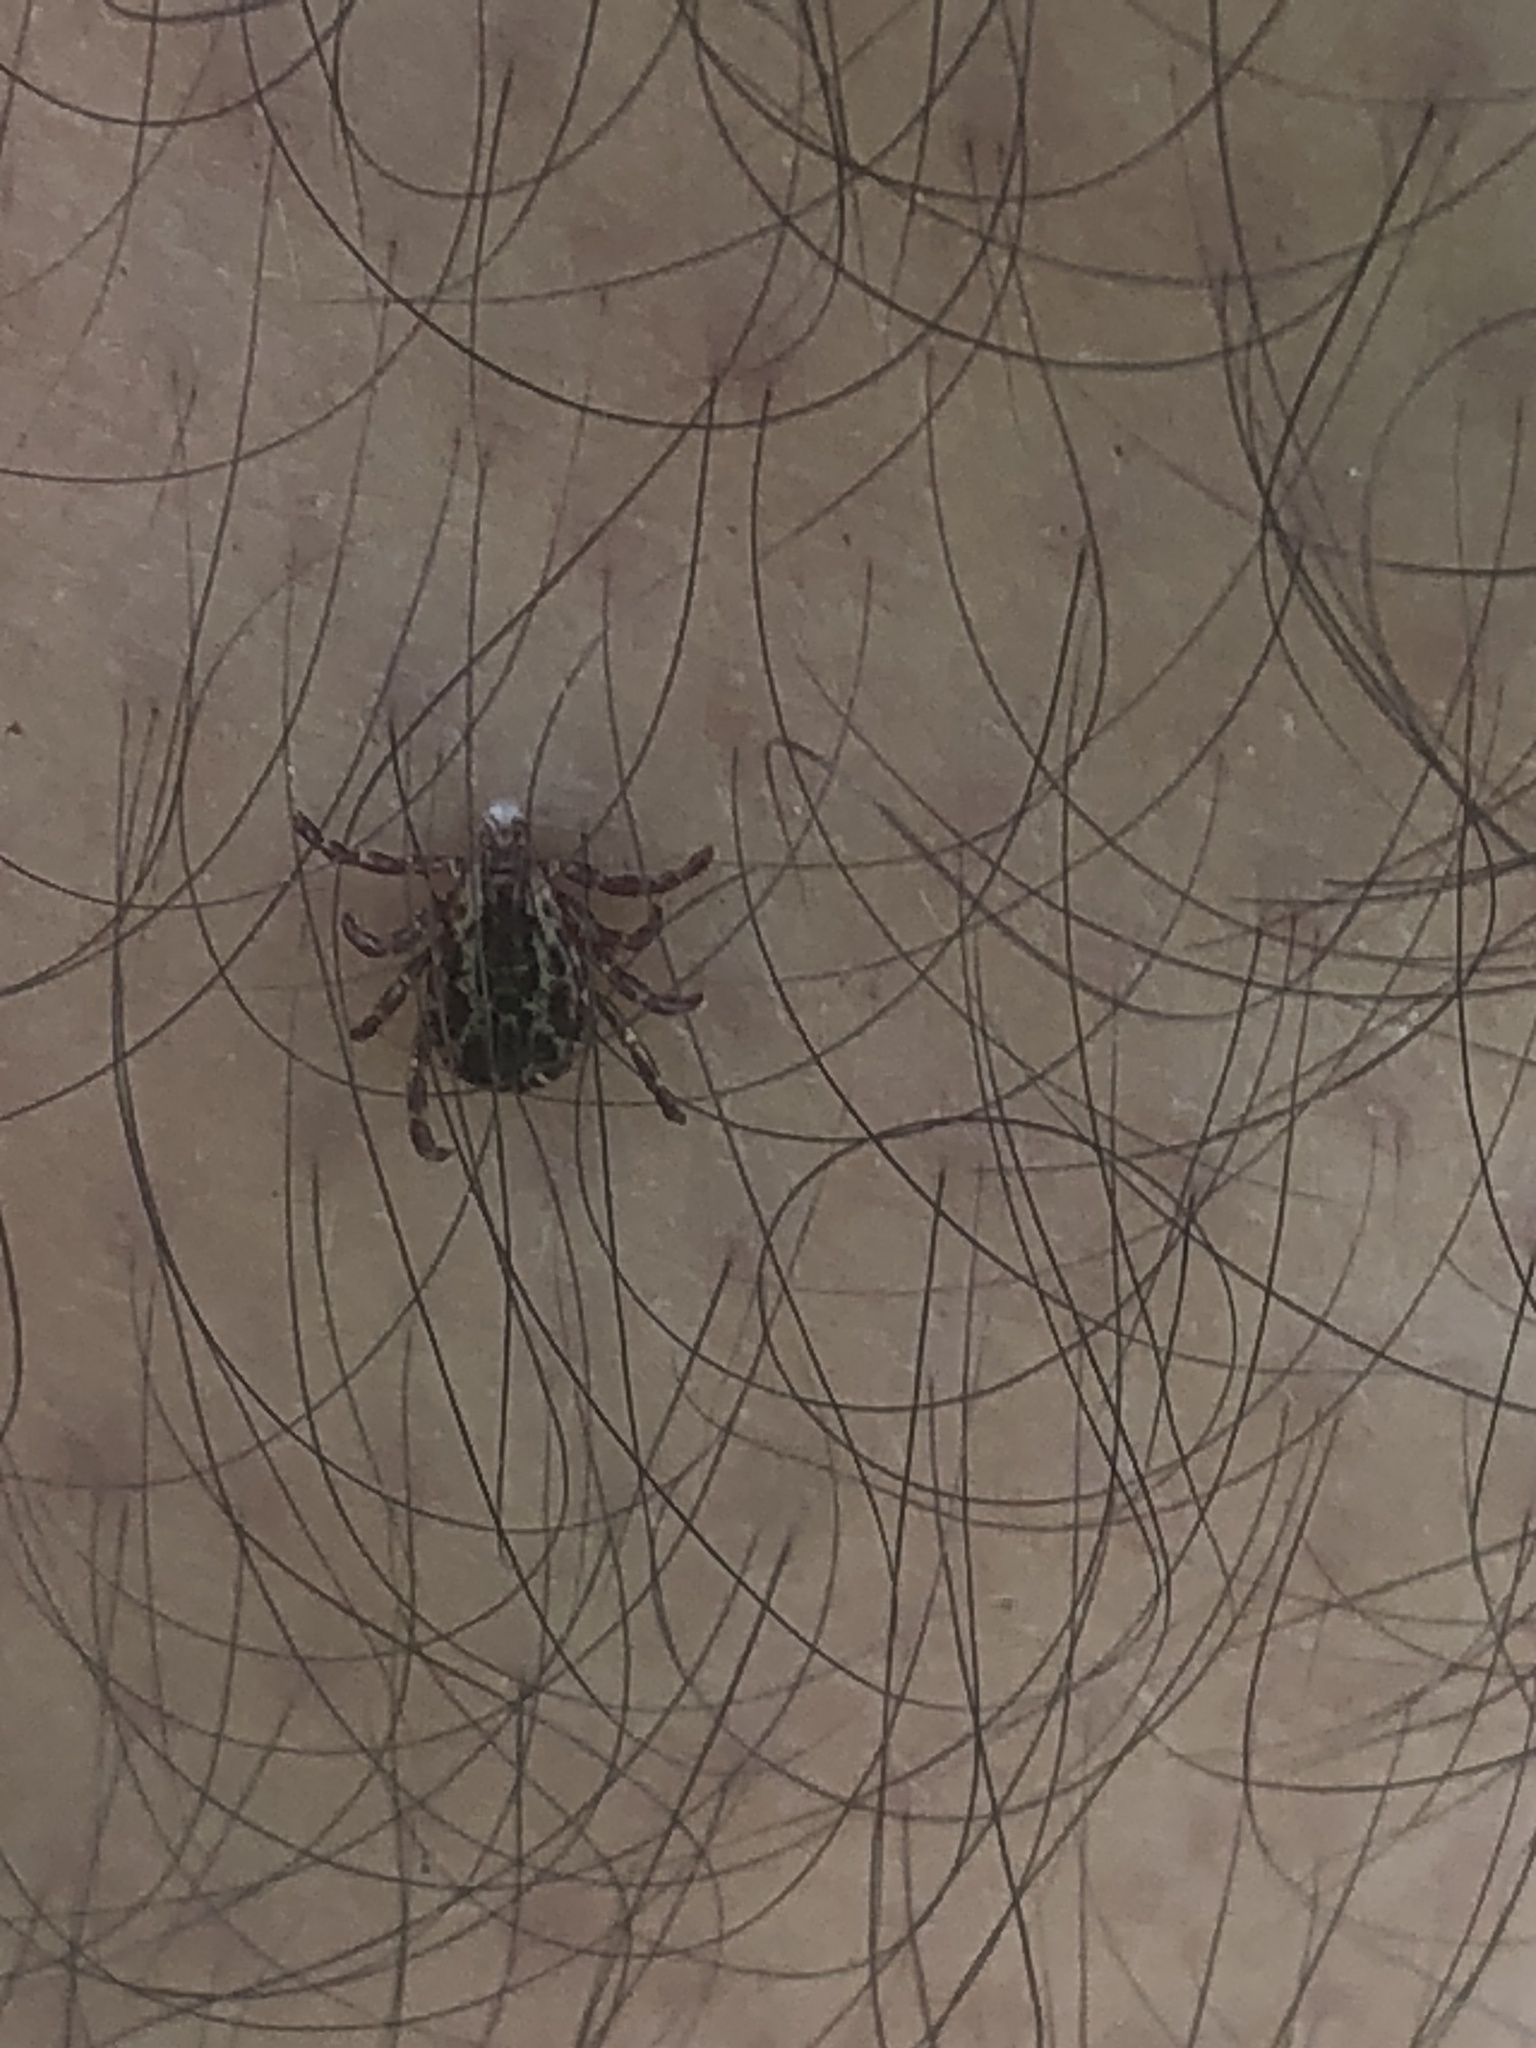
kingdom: Animalia
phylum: Arthropoda
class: Arachnida
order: Ixodida
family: Ixodidae
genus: Dermacentor
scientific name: Dermacentor variabilis
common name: American dog tick
